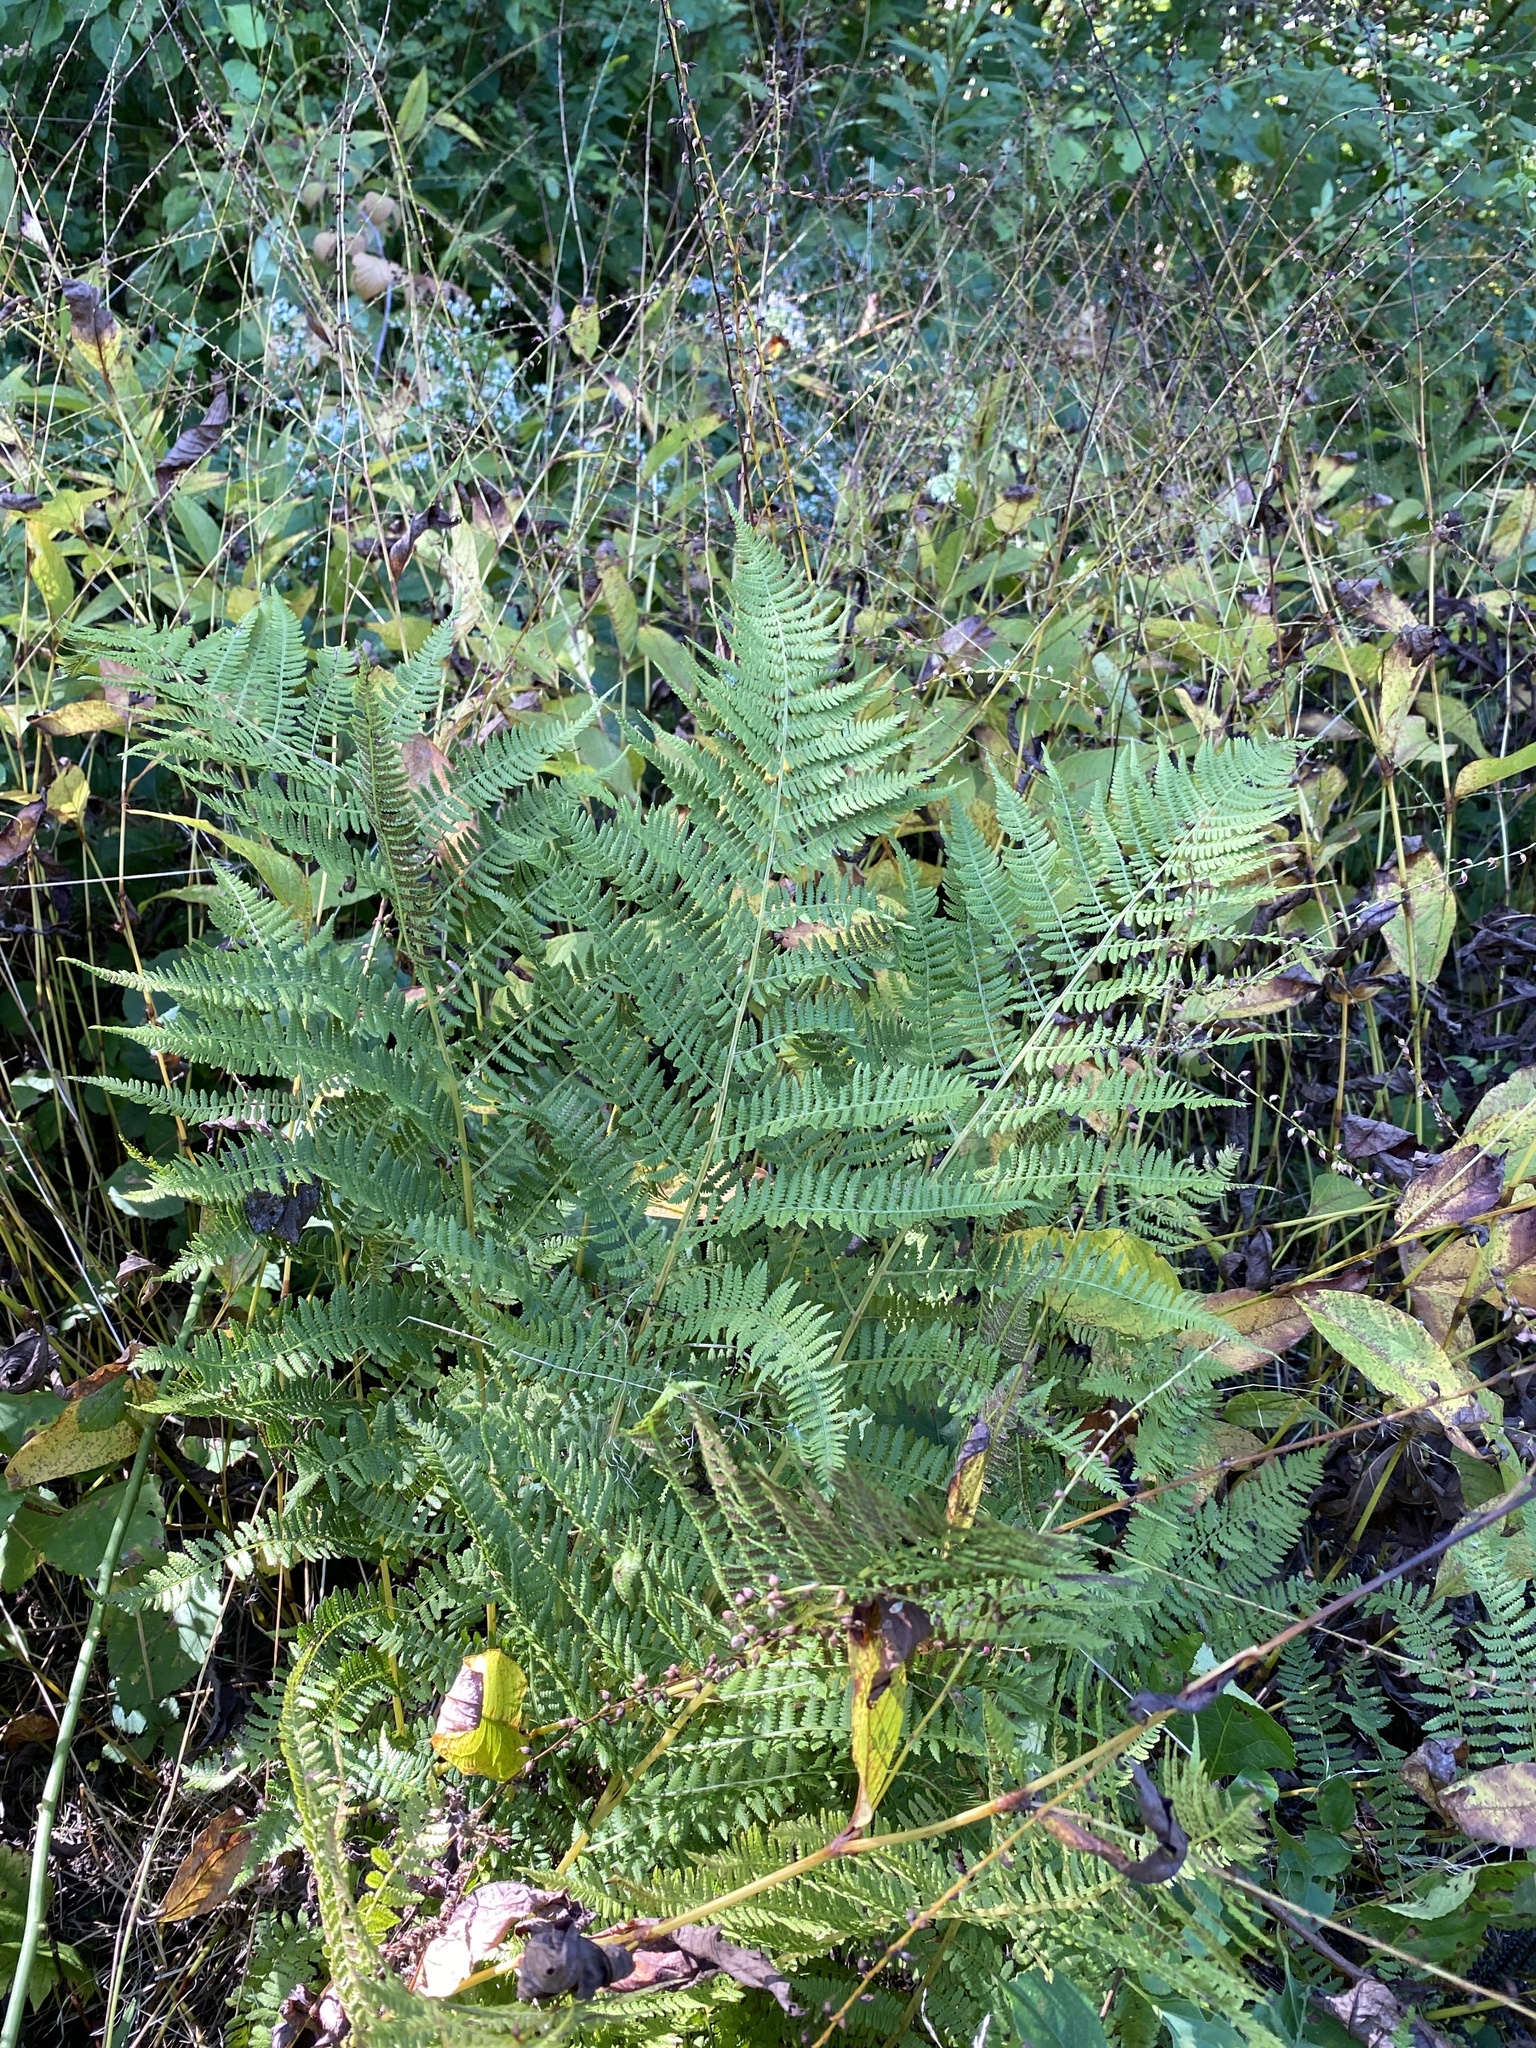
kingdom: Plantae
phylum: Tracheophyta
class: Polypodiopsida
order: Polypodiales
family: Athyriaceae
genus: Athyrium
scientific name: Athyrium angustum
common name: Northern lady fern
